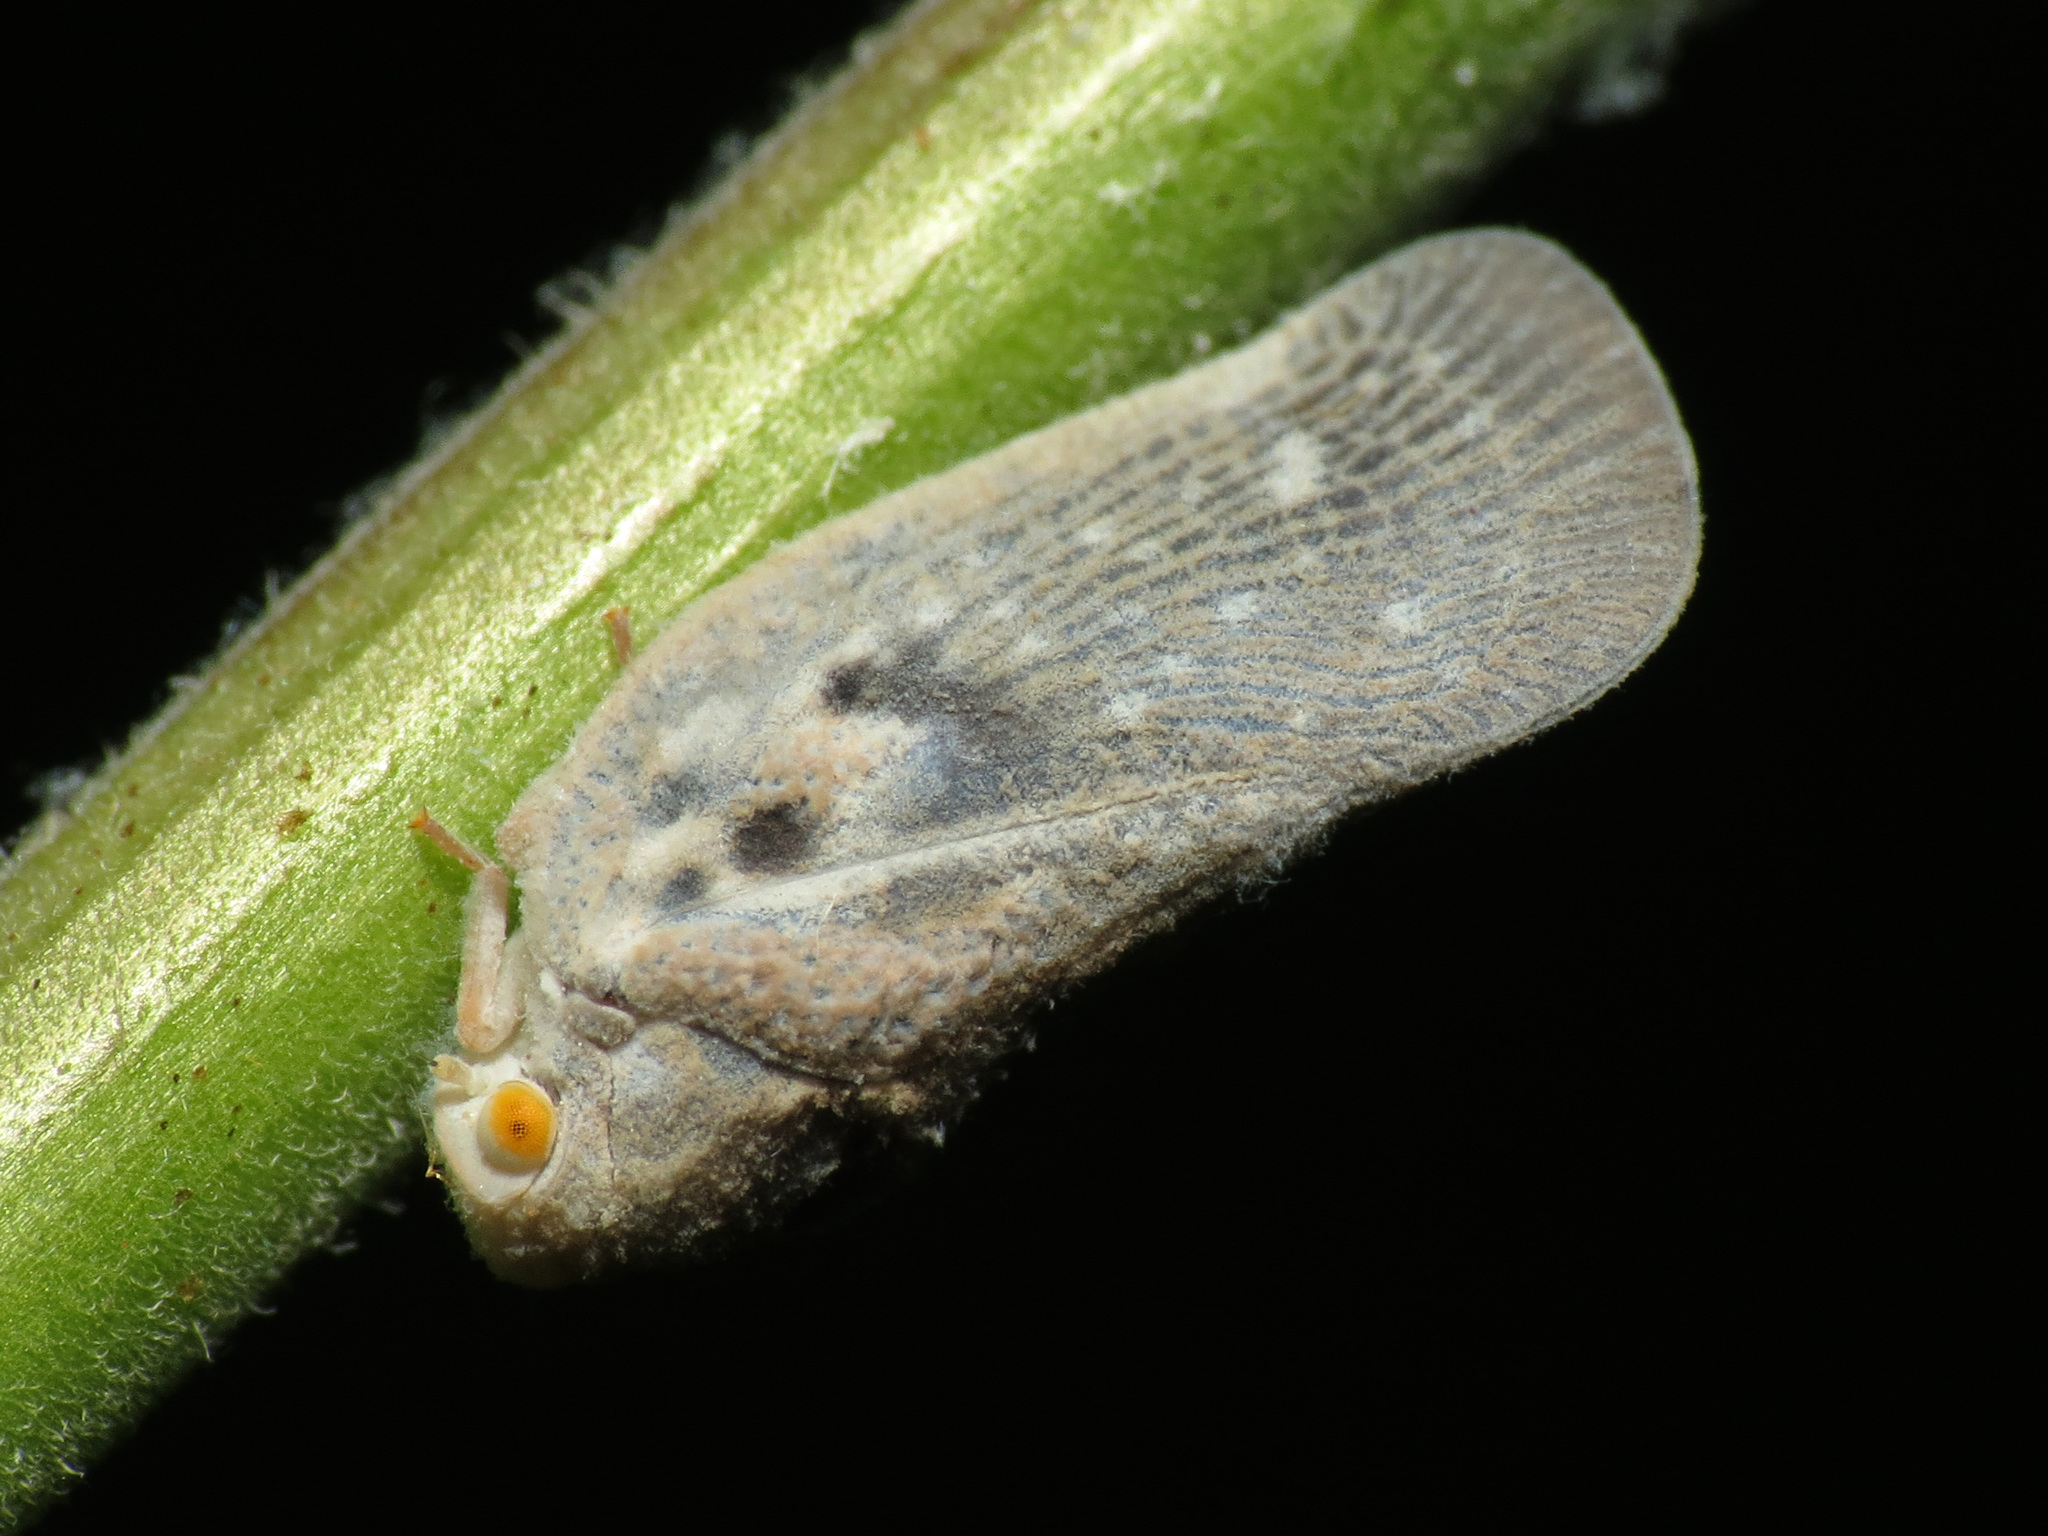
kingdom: Animalia
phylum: Arthropoda
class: Insecta
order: Hemiptera
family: Flatidae
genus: Metcalfa
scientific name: Metcalfa pruinosa
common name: Citrus flatid planthopper
